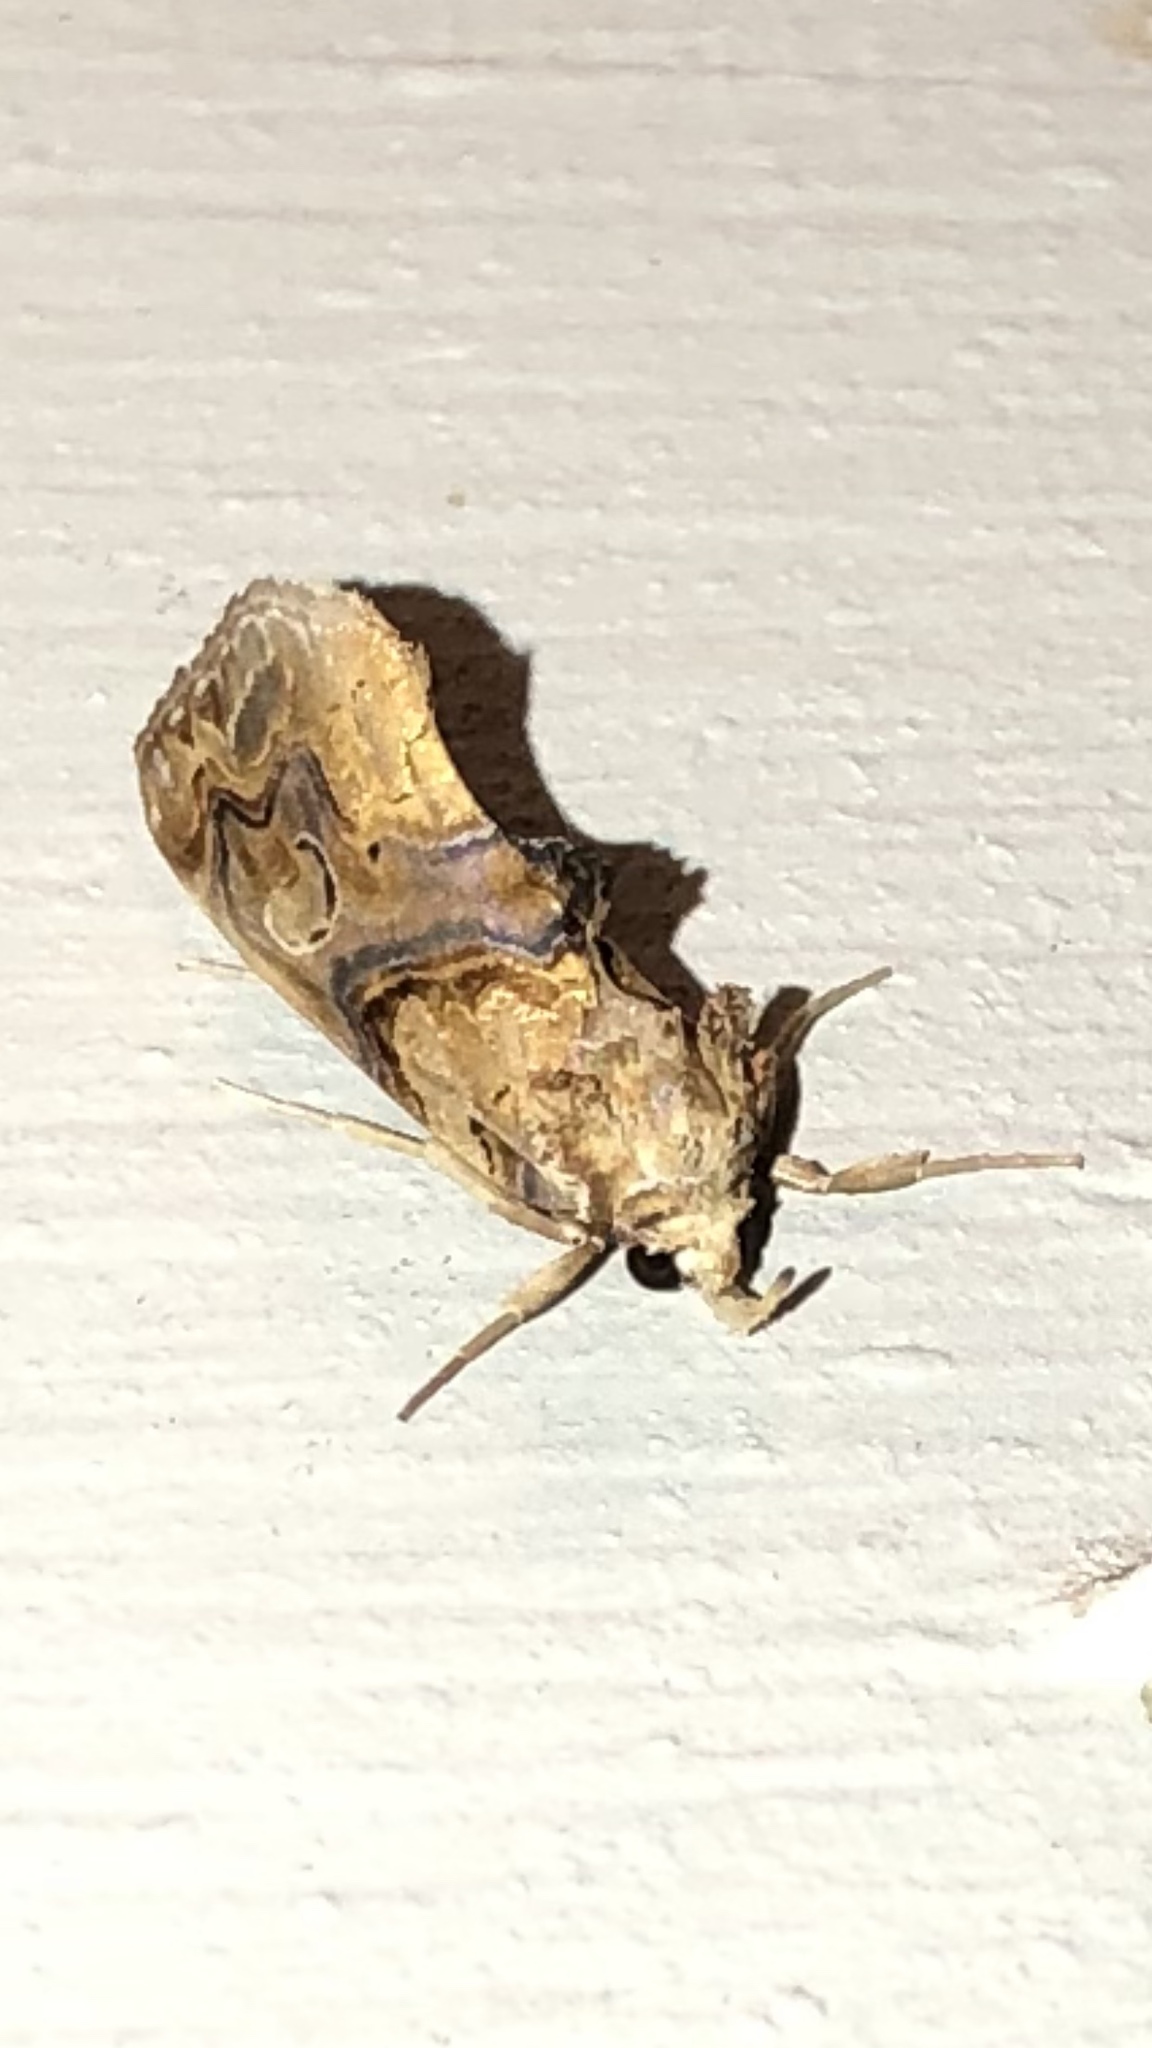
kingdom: Animalia
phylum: Arthropoda
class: Insecta
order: Lepidoptera
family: Erebidae
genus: Plusiodonta
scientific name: Plusiodonta compressipalpis
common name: Moonseed moth
